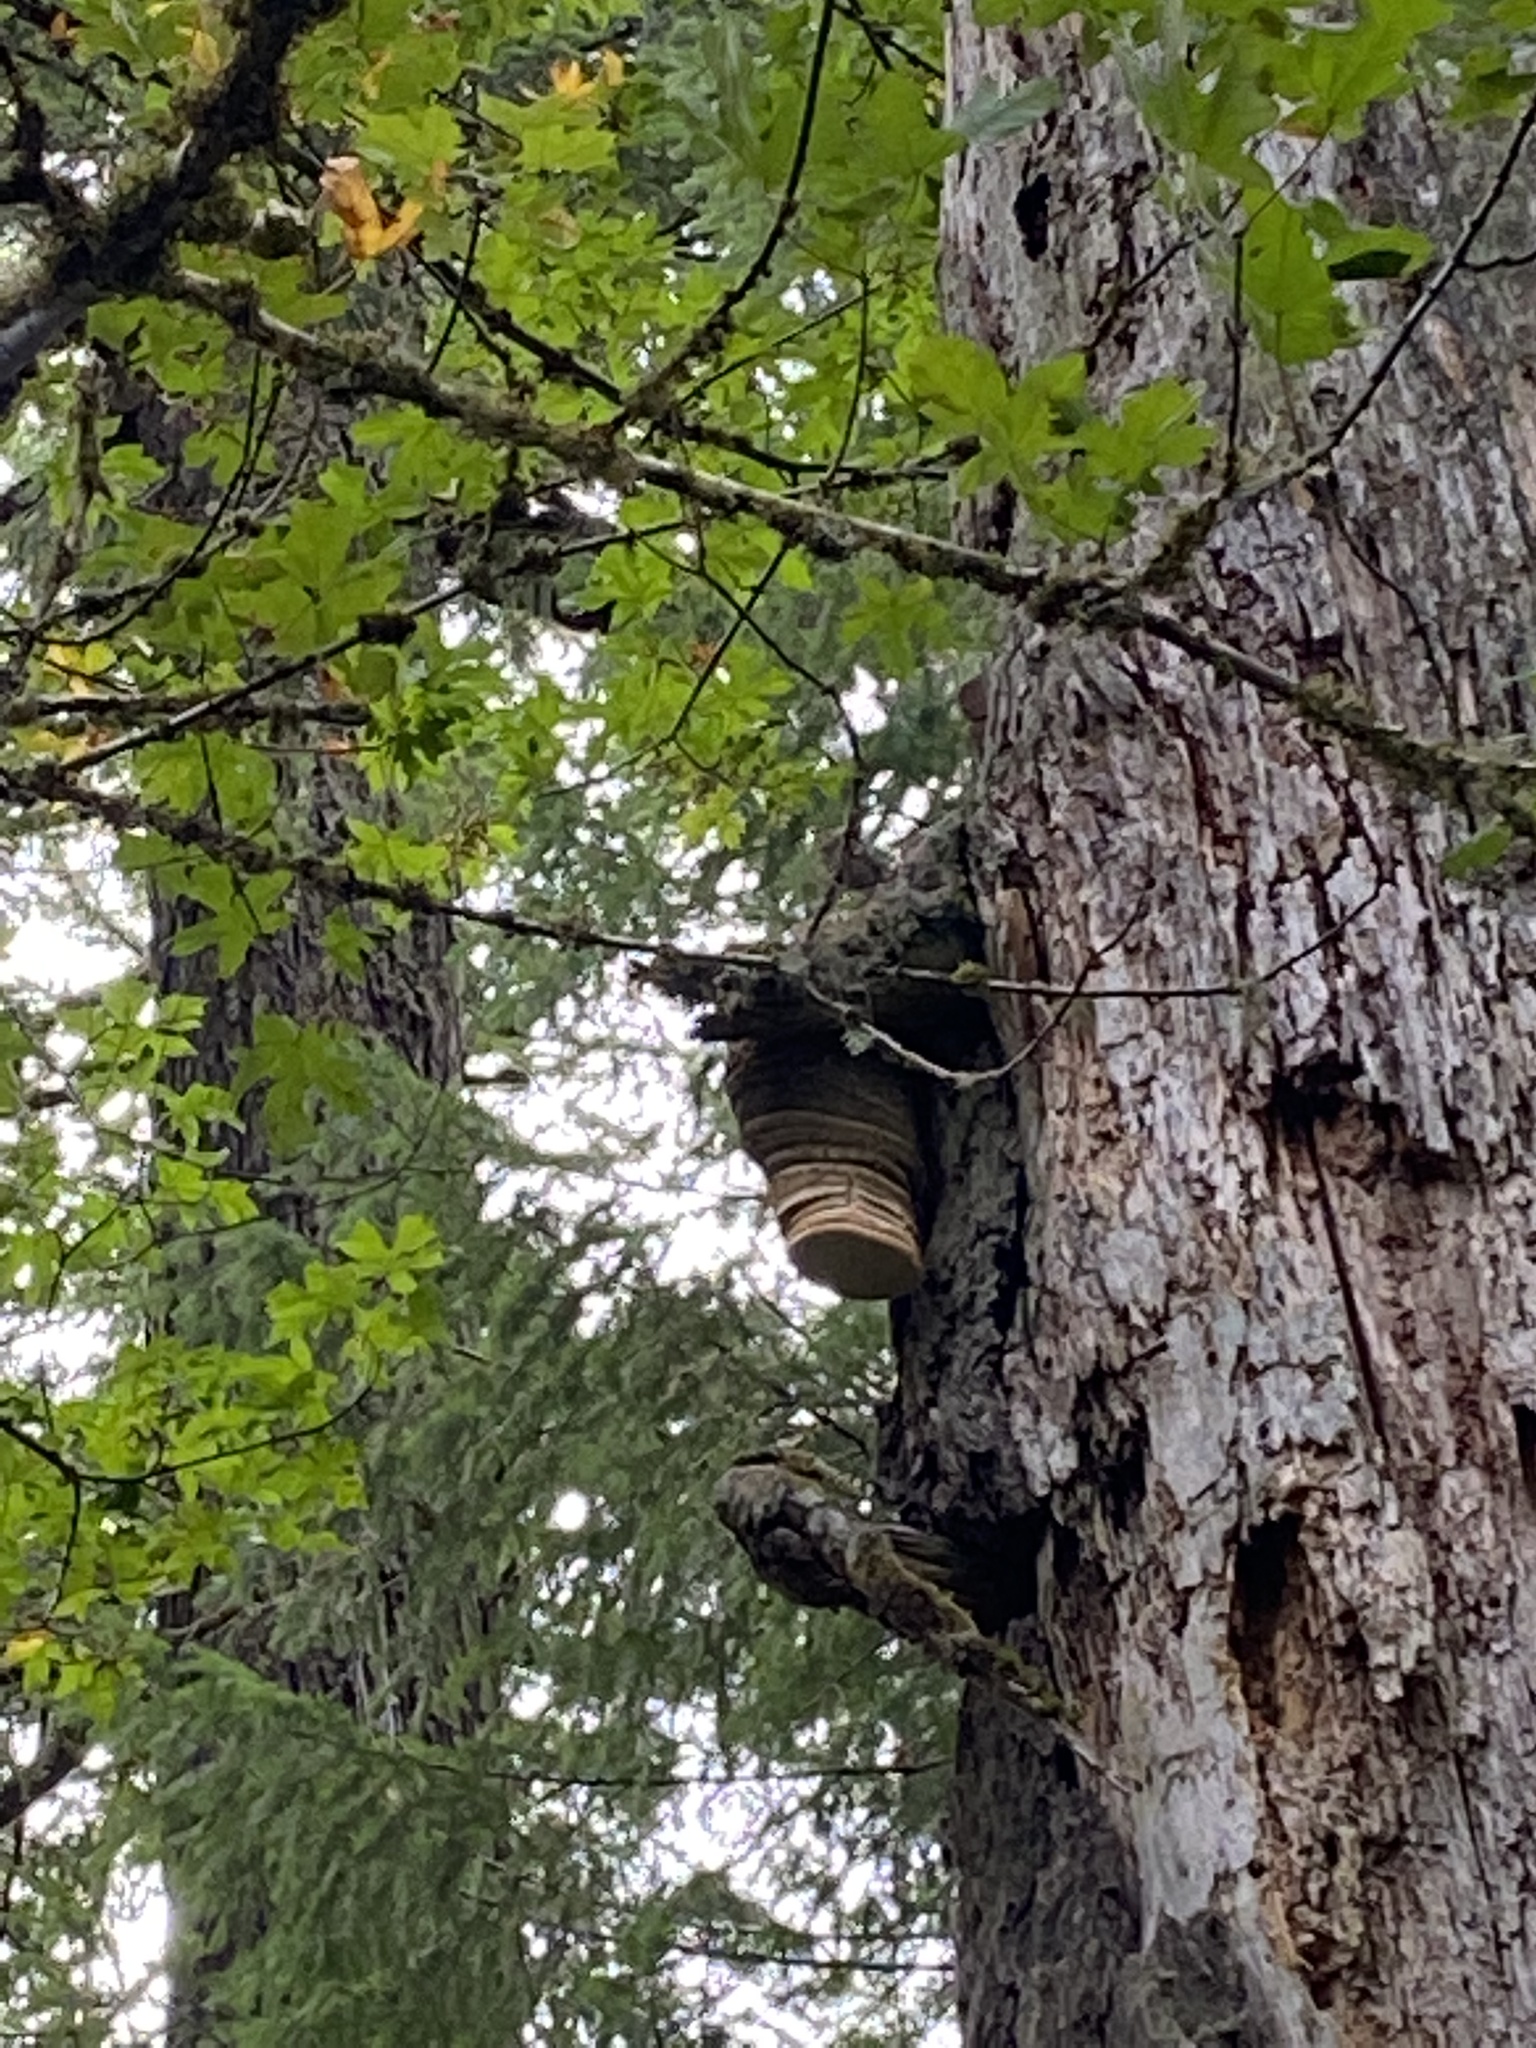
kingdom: Fungi
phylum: Basidiomycota
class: Agaricomycetes
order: Polyporales
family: Fomitopsidaceae
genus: Fomitopsis
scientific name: Fomitopsis officinalis
